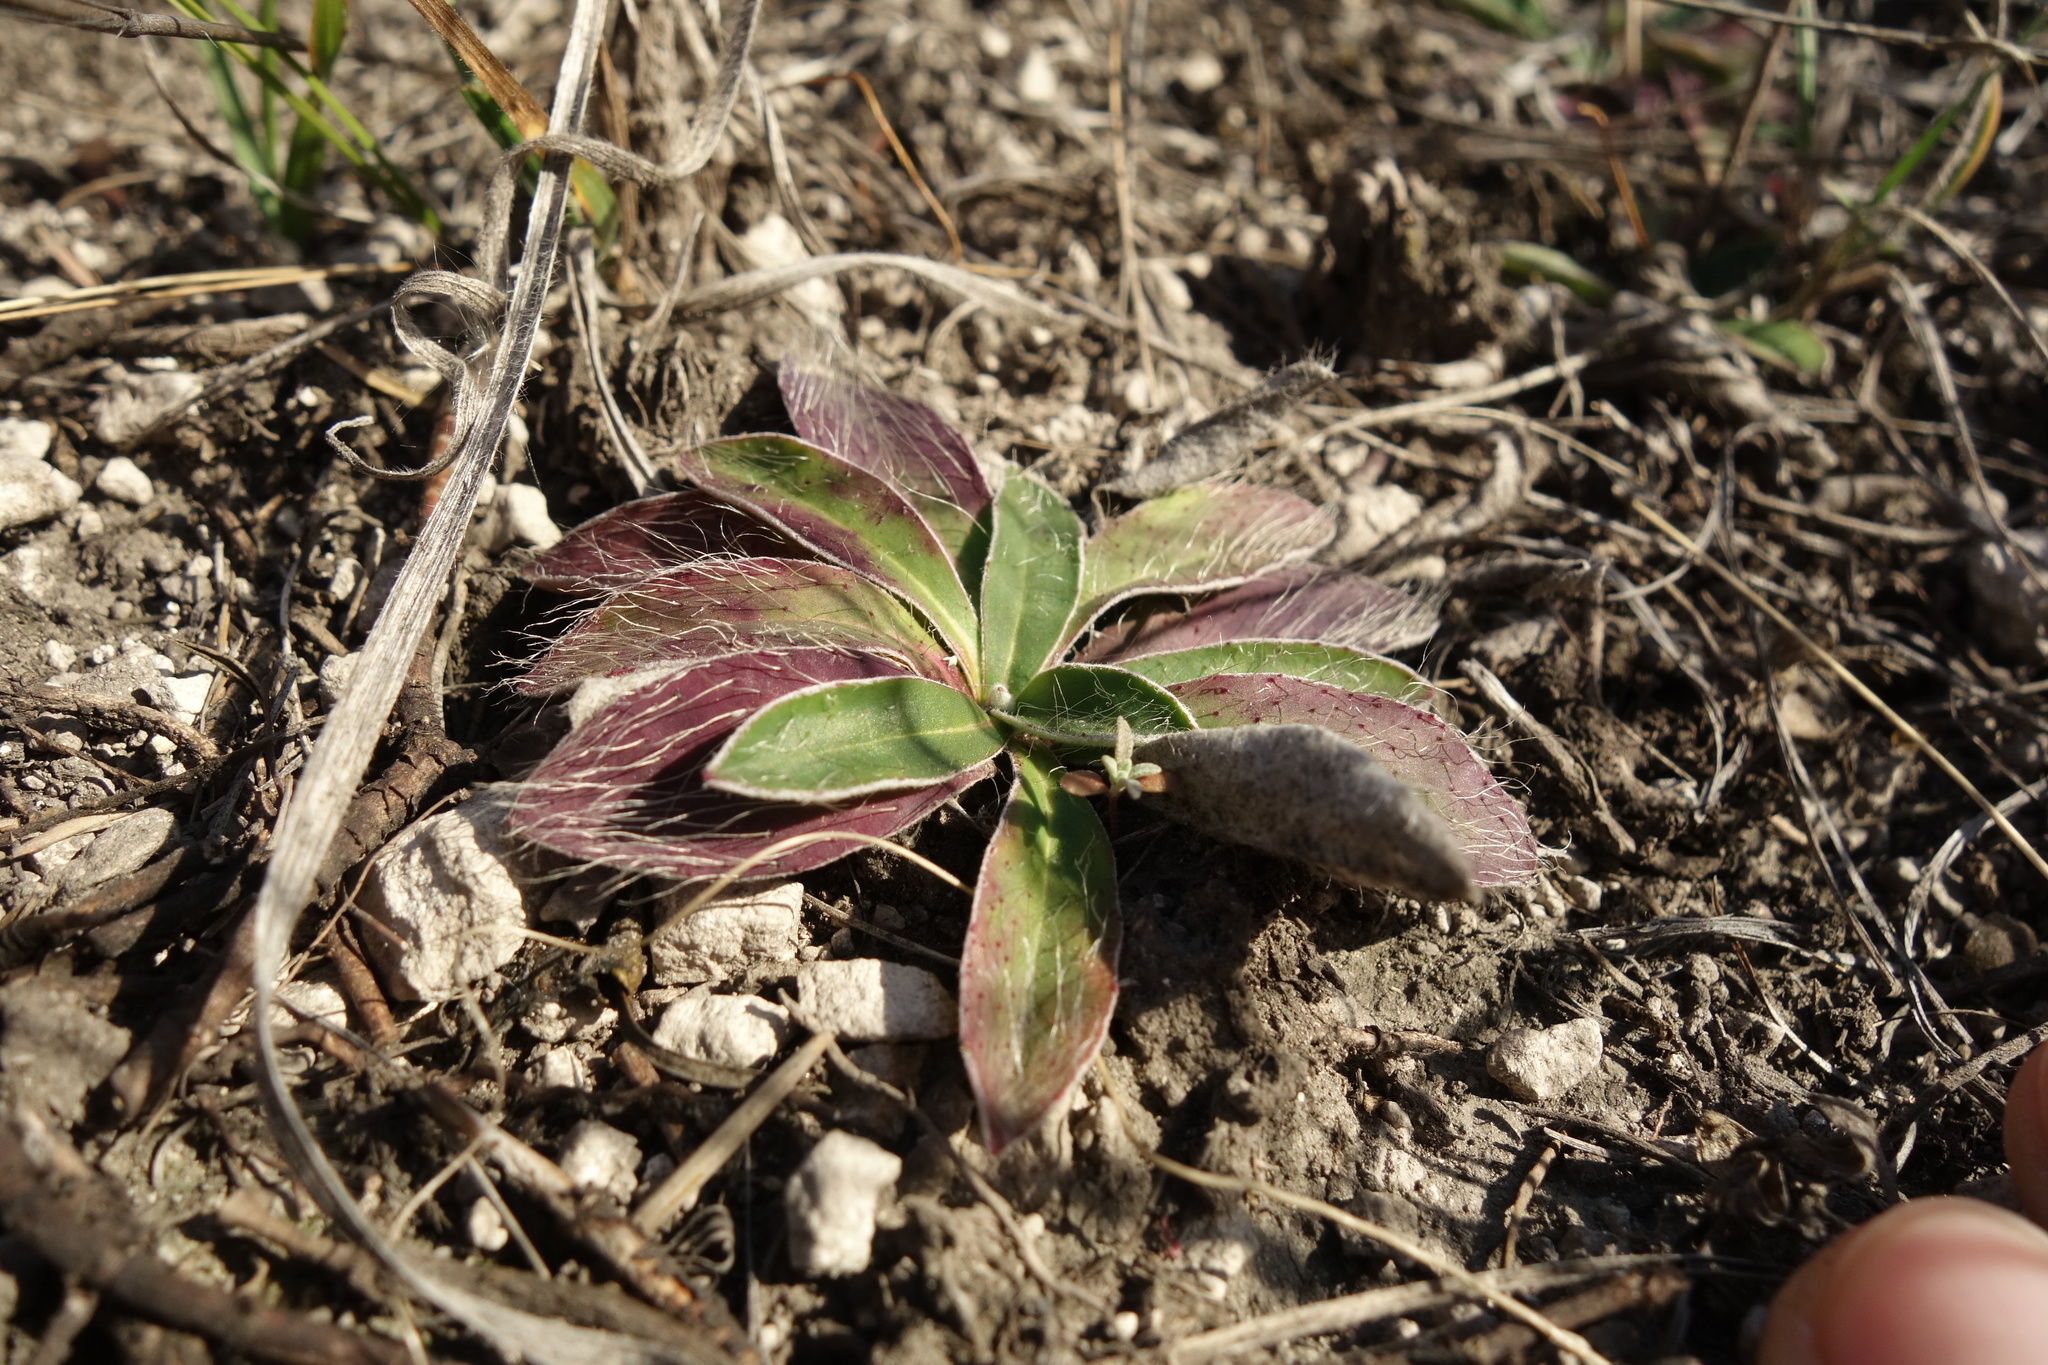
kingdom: Plantae
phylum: Tracheophyta
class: Magnoliopsida
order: Asterales
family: Asteraceae
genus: Pilosella
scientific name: Pilosella officinarum
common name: Mouse-ear hawkweed
